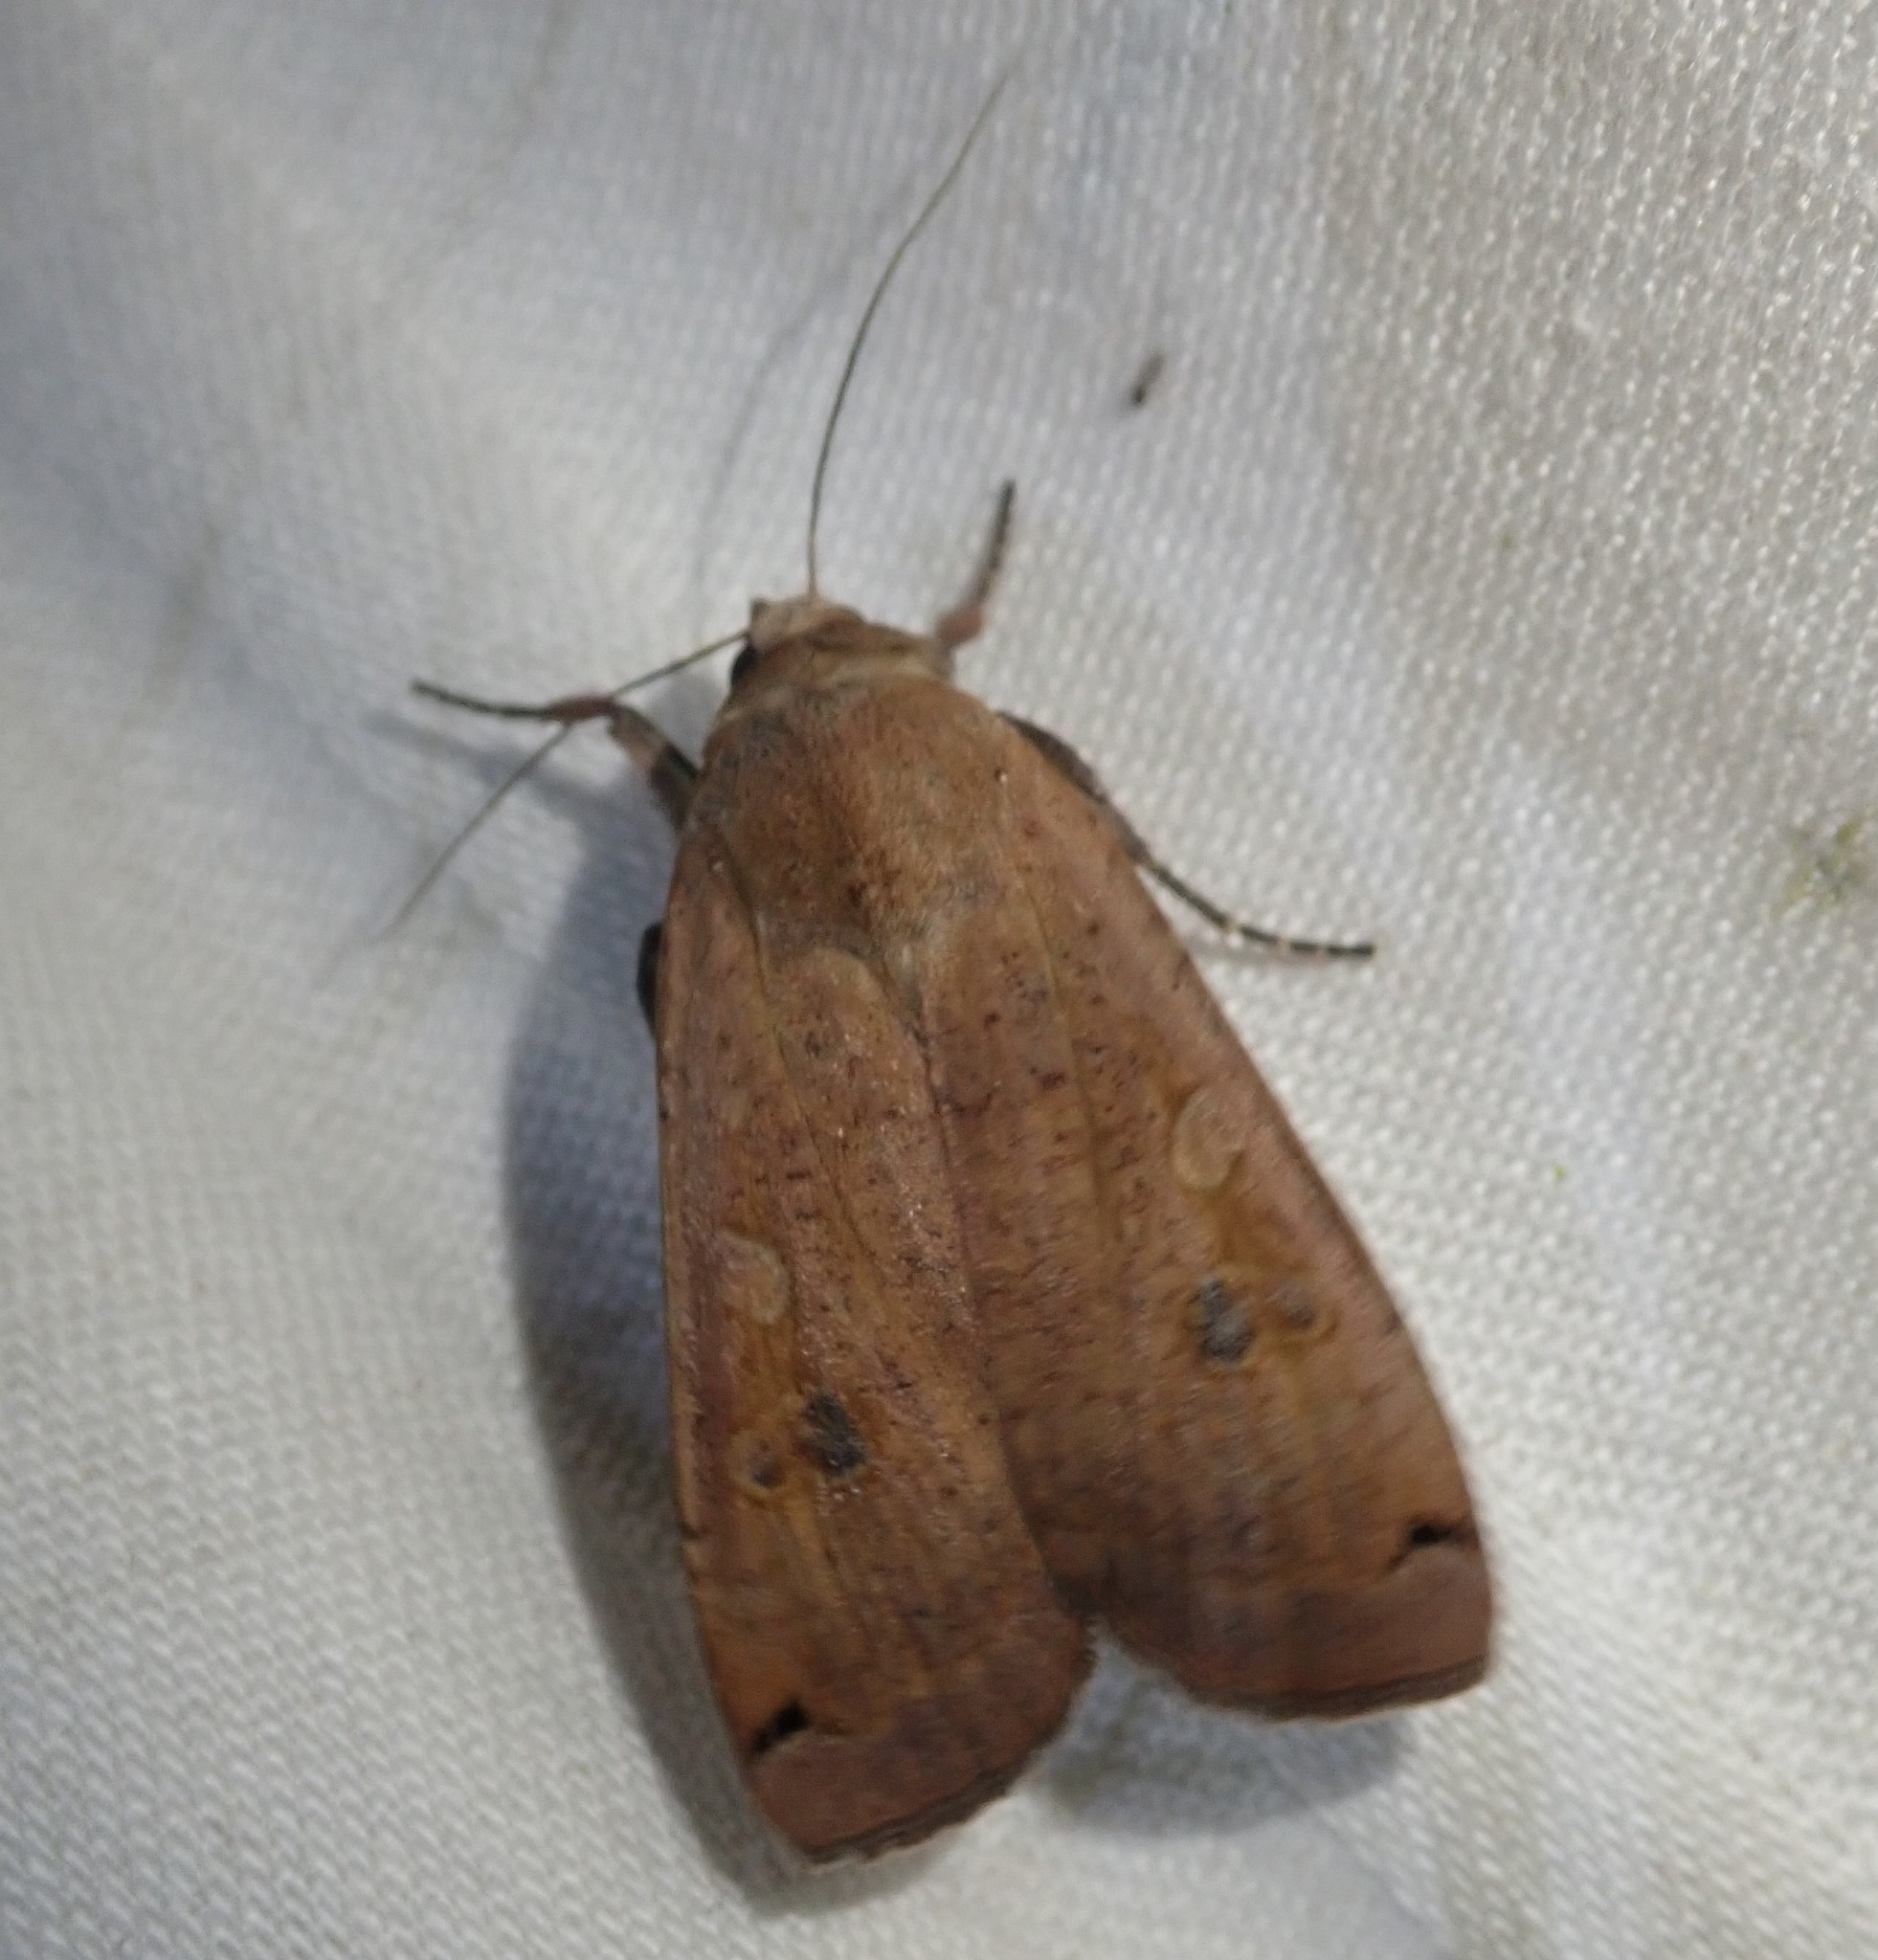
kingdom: Animalia
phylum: Arthropoda
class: Insecta
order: Lepidoptera
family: Noctuidae
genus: Noctua
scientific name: Noctua pronuba
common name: Large yellow underwing
